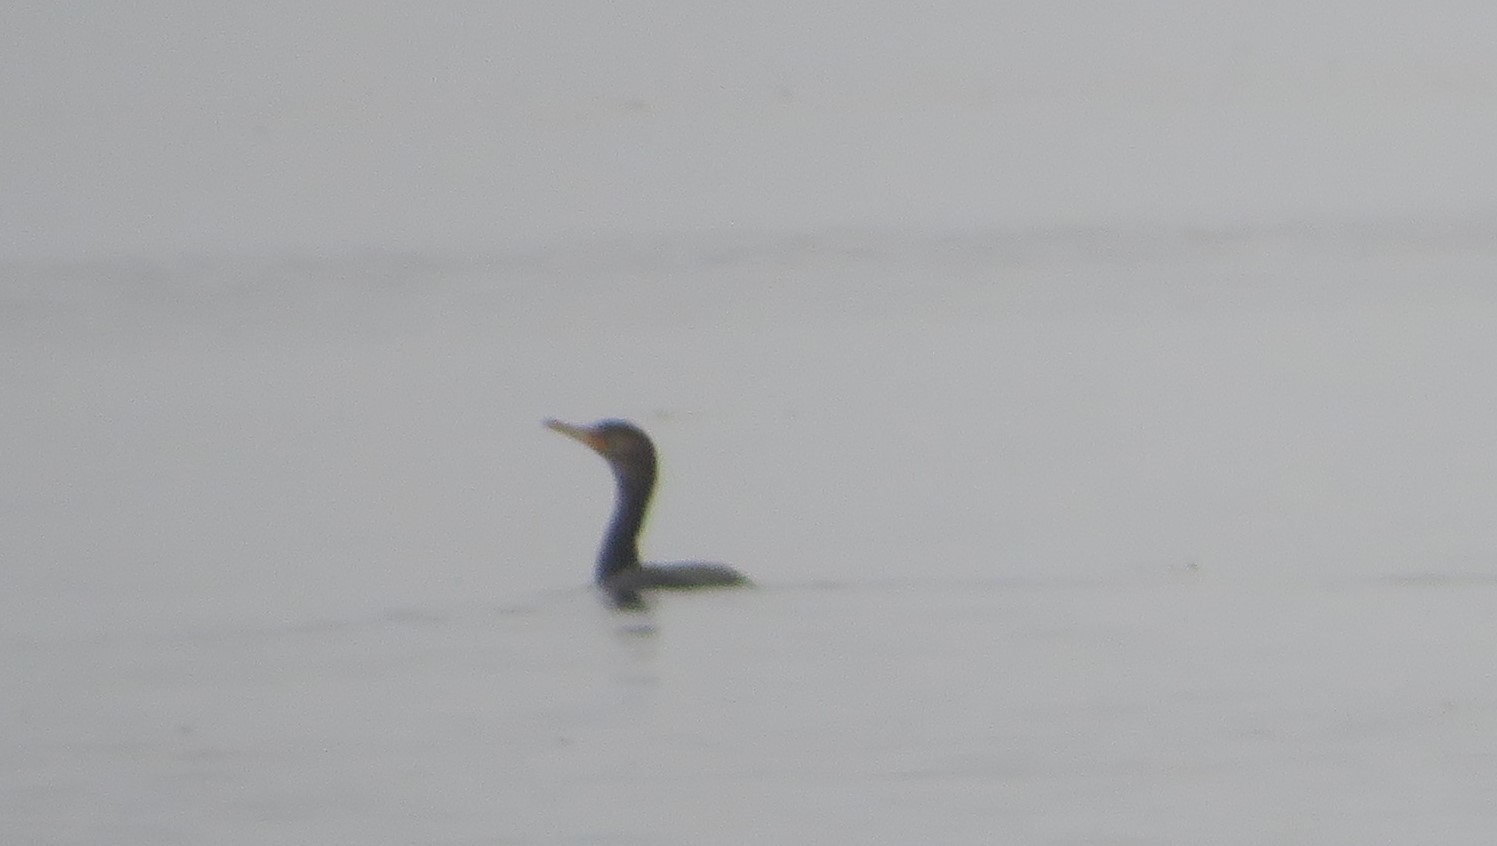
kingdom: Animalia
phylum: Chordata
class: Aves
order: Suliformes
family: Phalacrocoracidae
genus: Phalacrocorax
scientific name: Phalacrocorax auritus
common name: Double-crested cormorant
